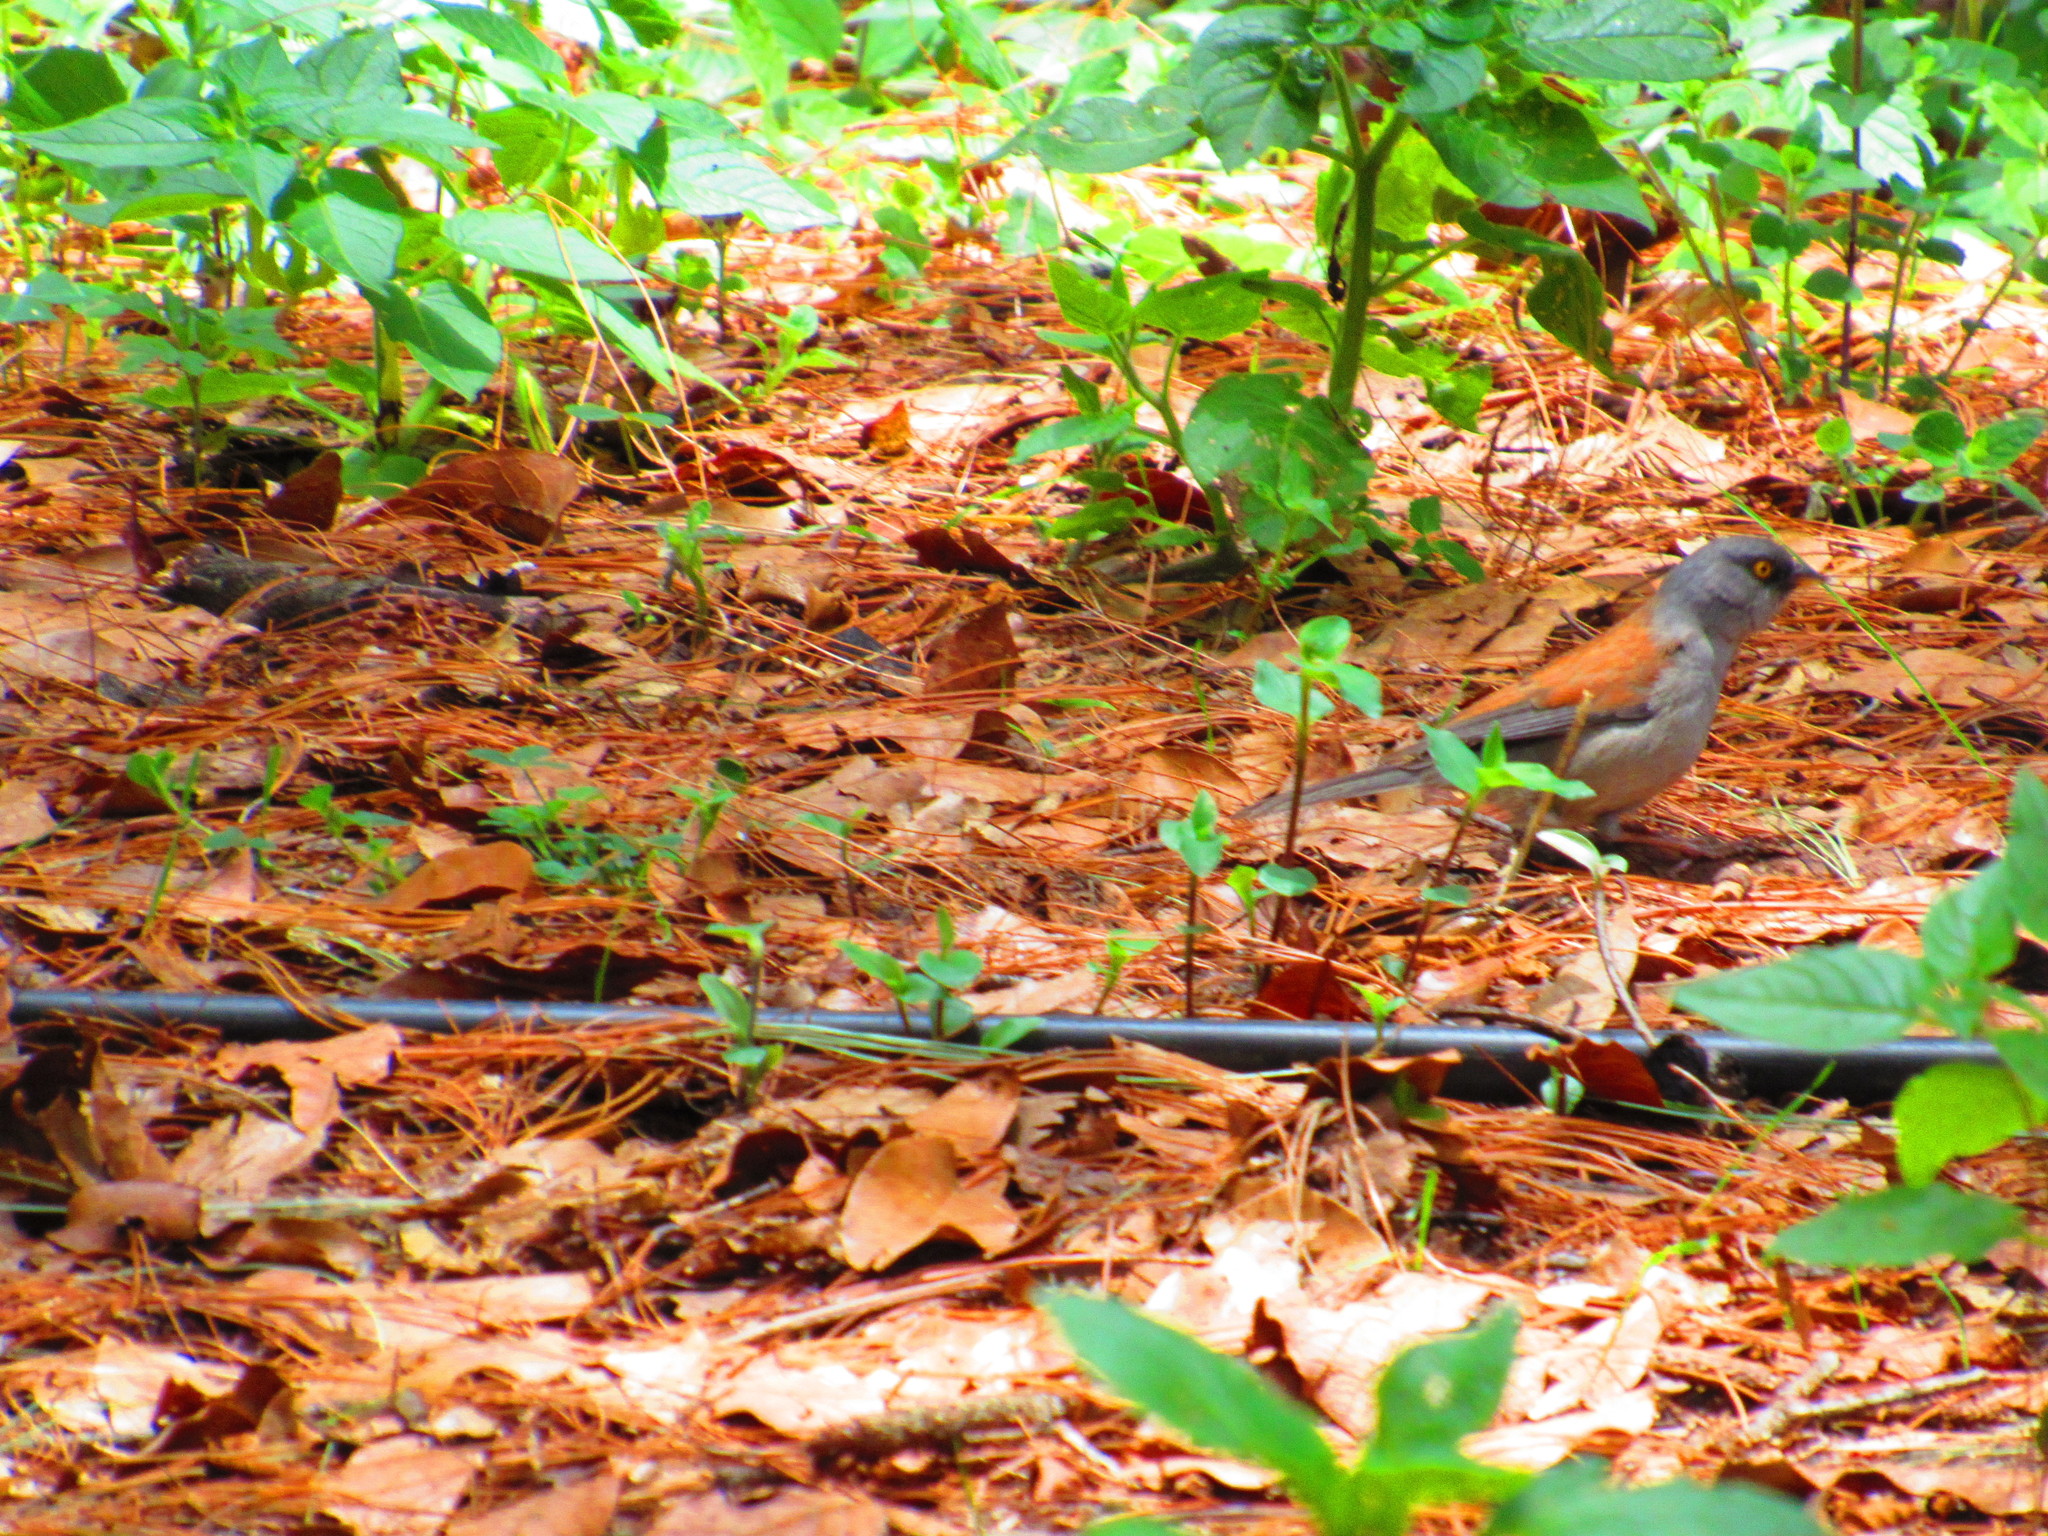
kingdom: Animalia
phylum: Chordata
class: Aves
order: Passeriformes
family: Passerellidae
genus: Junco
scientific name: Junco phaeonotus
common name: Yellow-eyed junco
